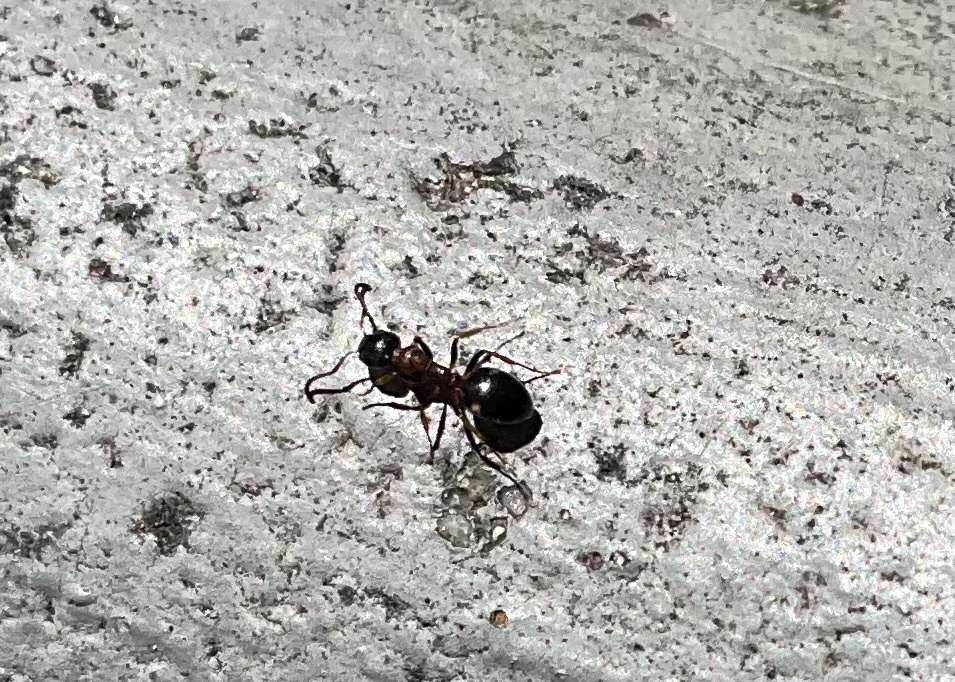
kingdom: Animalia
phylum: Arthropoda
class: Insecta
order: Hymenoptera
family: Formicidae
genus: Dolichoderus
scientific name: Dolichoderus quadripunctatus
